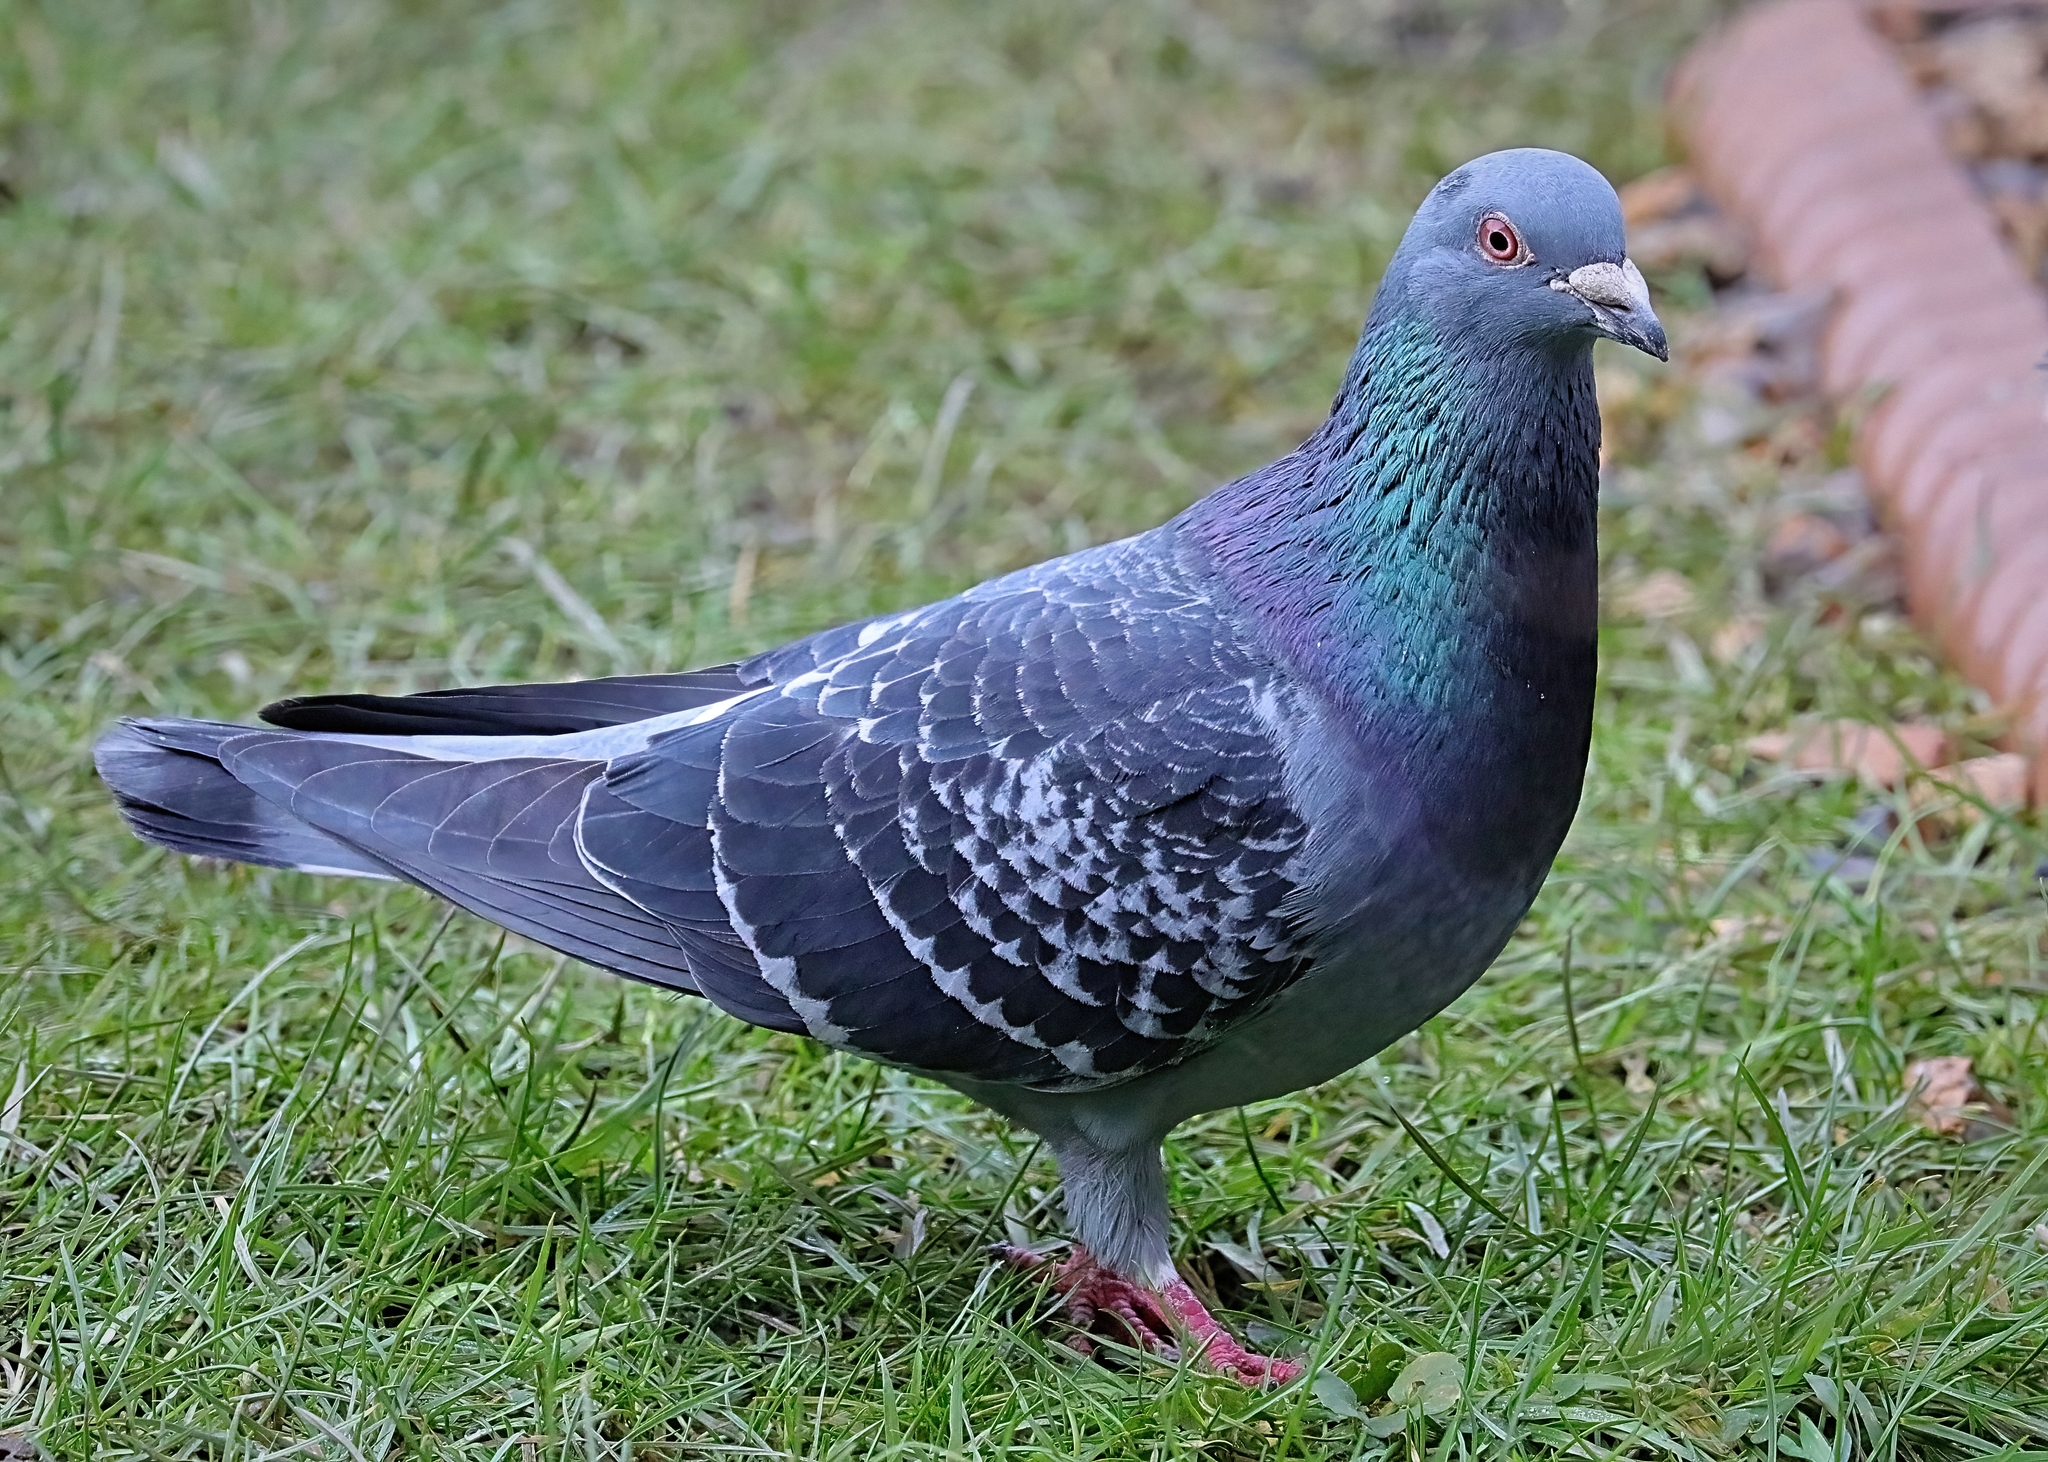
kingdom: Animalia
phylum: Chordata
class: Aves
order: Columbiformes
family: Columbidae
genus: Columba
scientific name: Columba livia
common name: Rock pigeon
